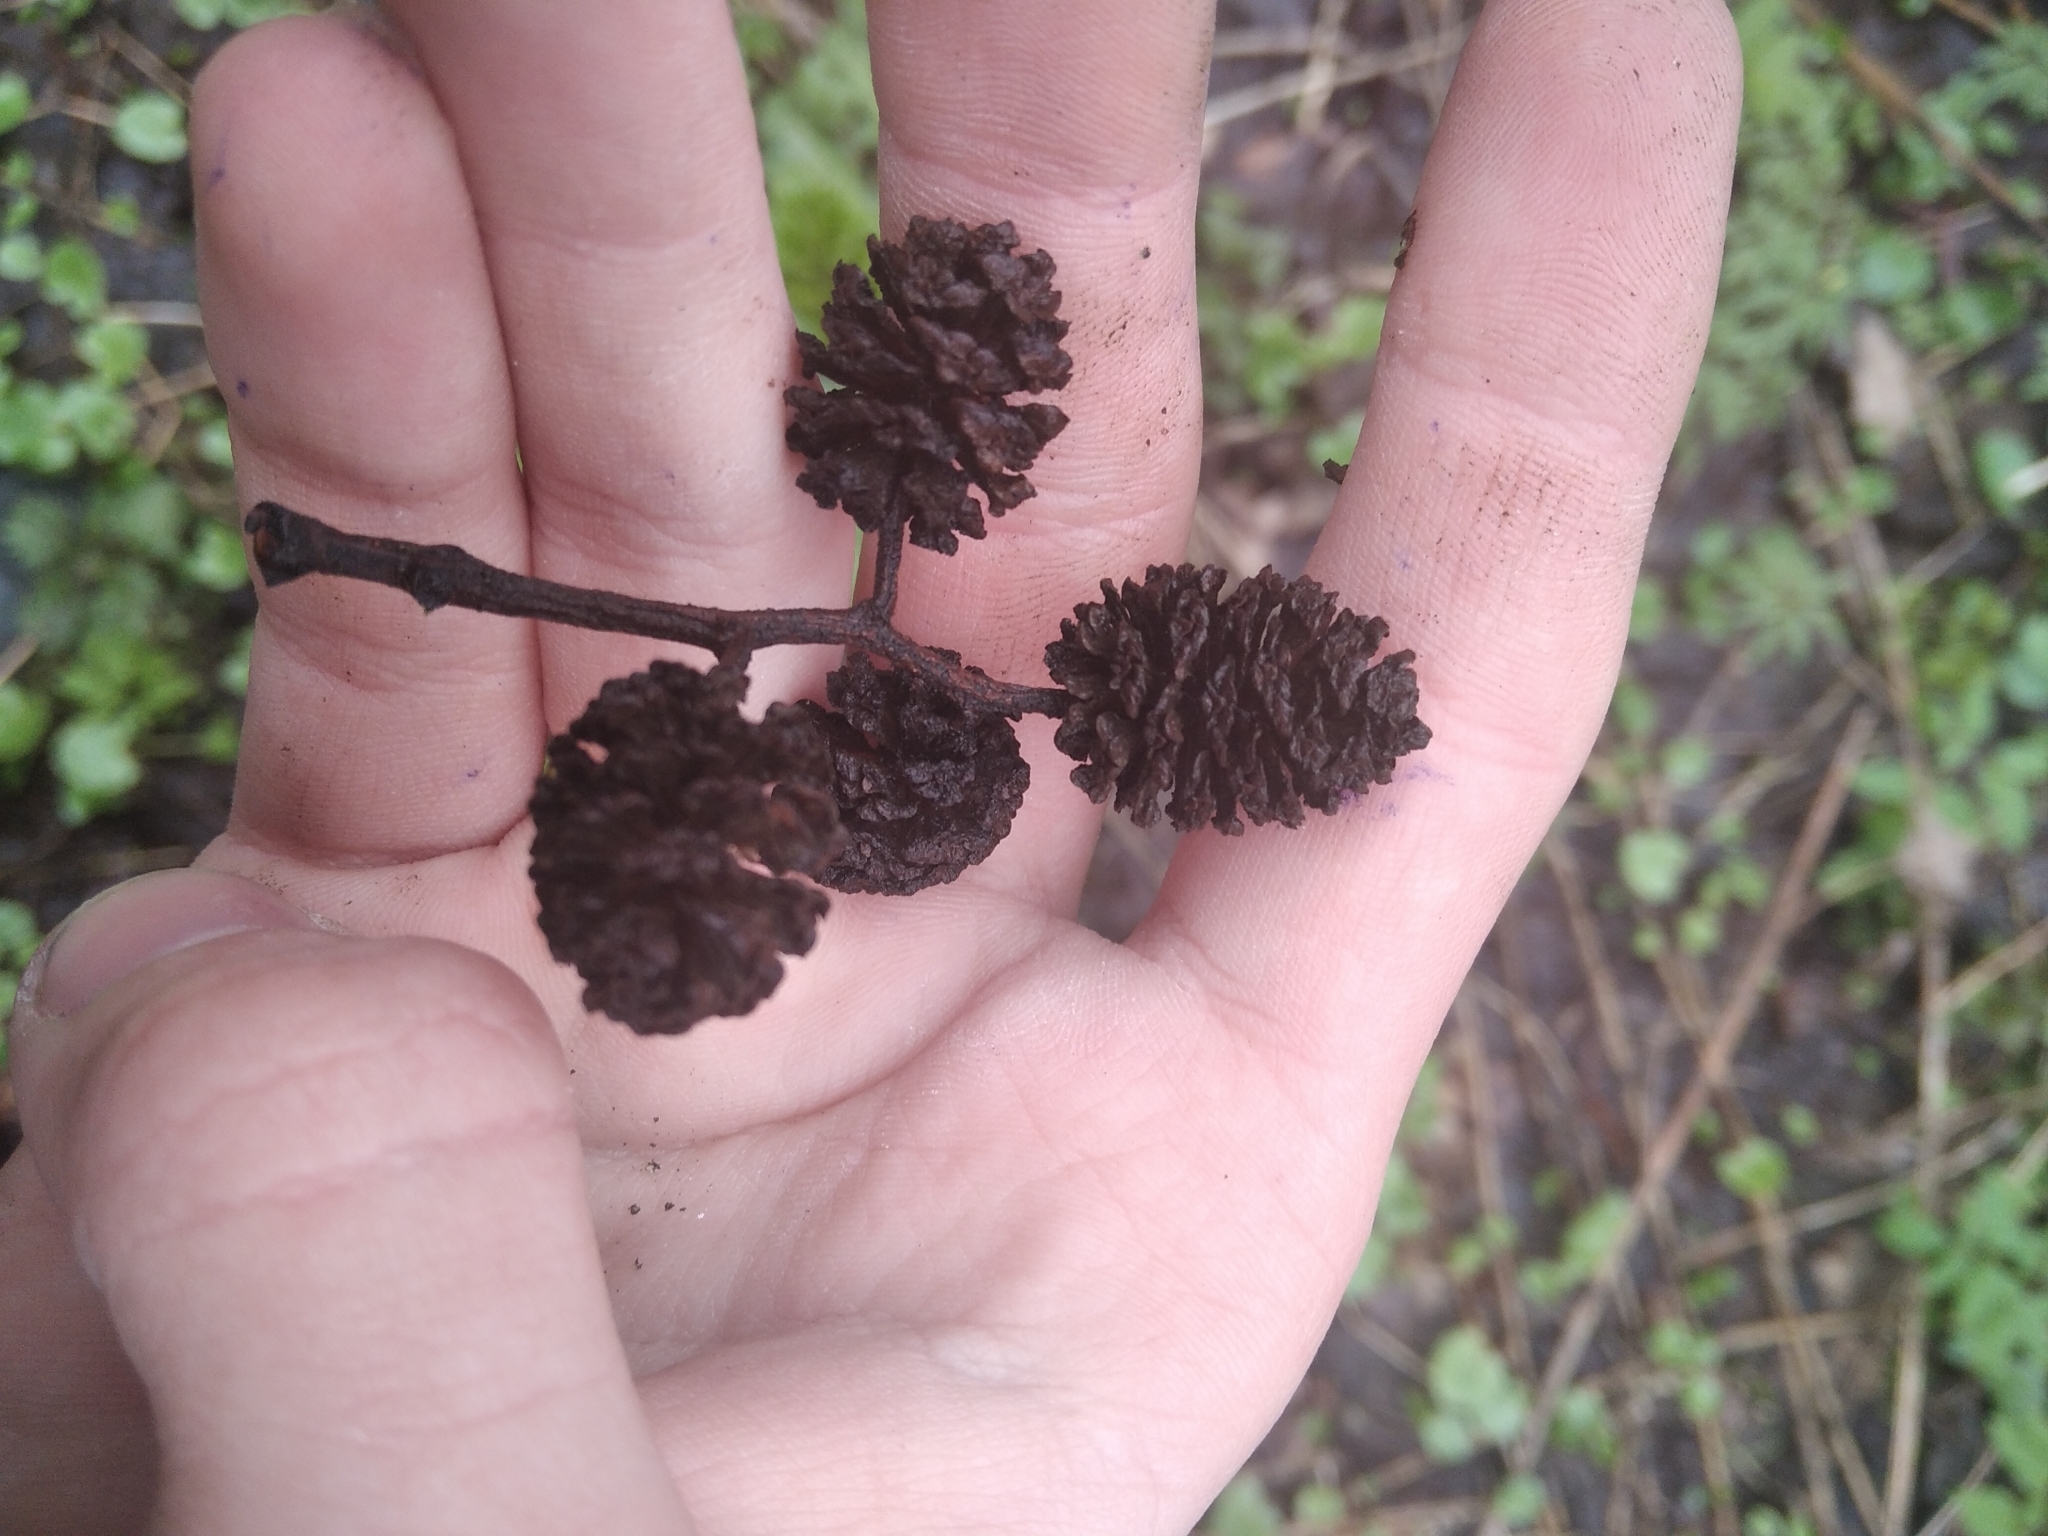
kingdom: Plantae
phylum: Tracheophyta
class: Magnoliopsida
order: Fagales
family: Betulaceae
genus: Alnus
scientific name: Alnus glutinosa
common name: Black alder
